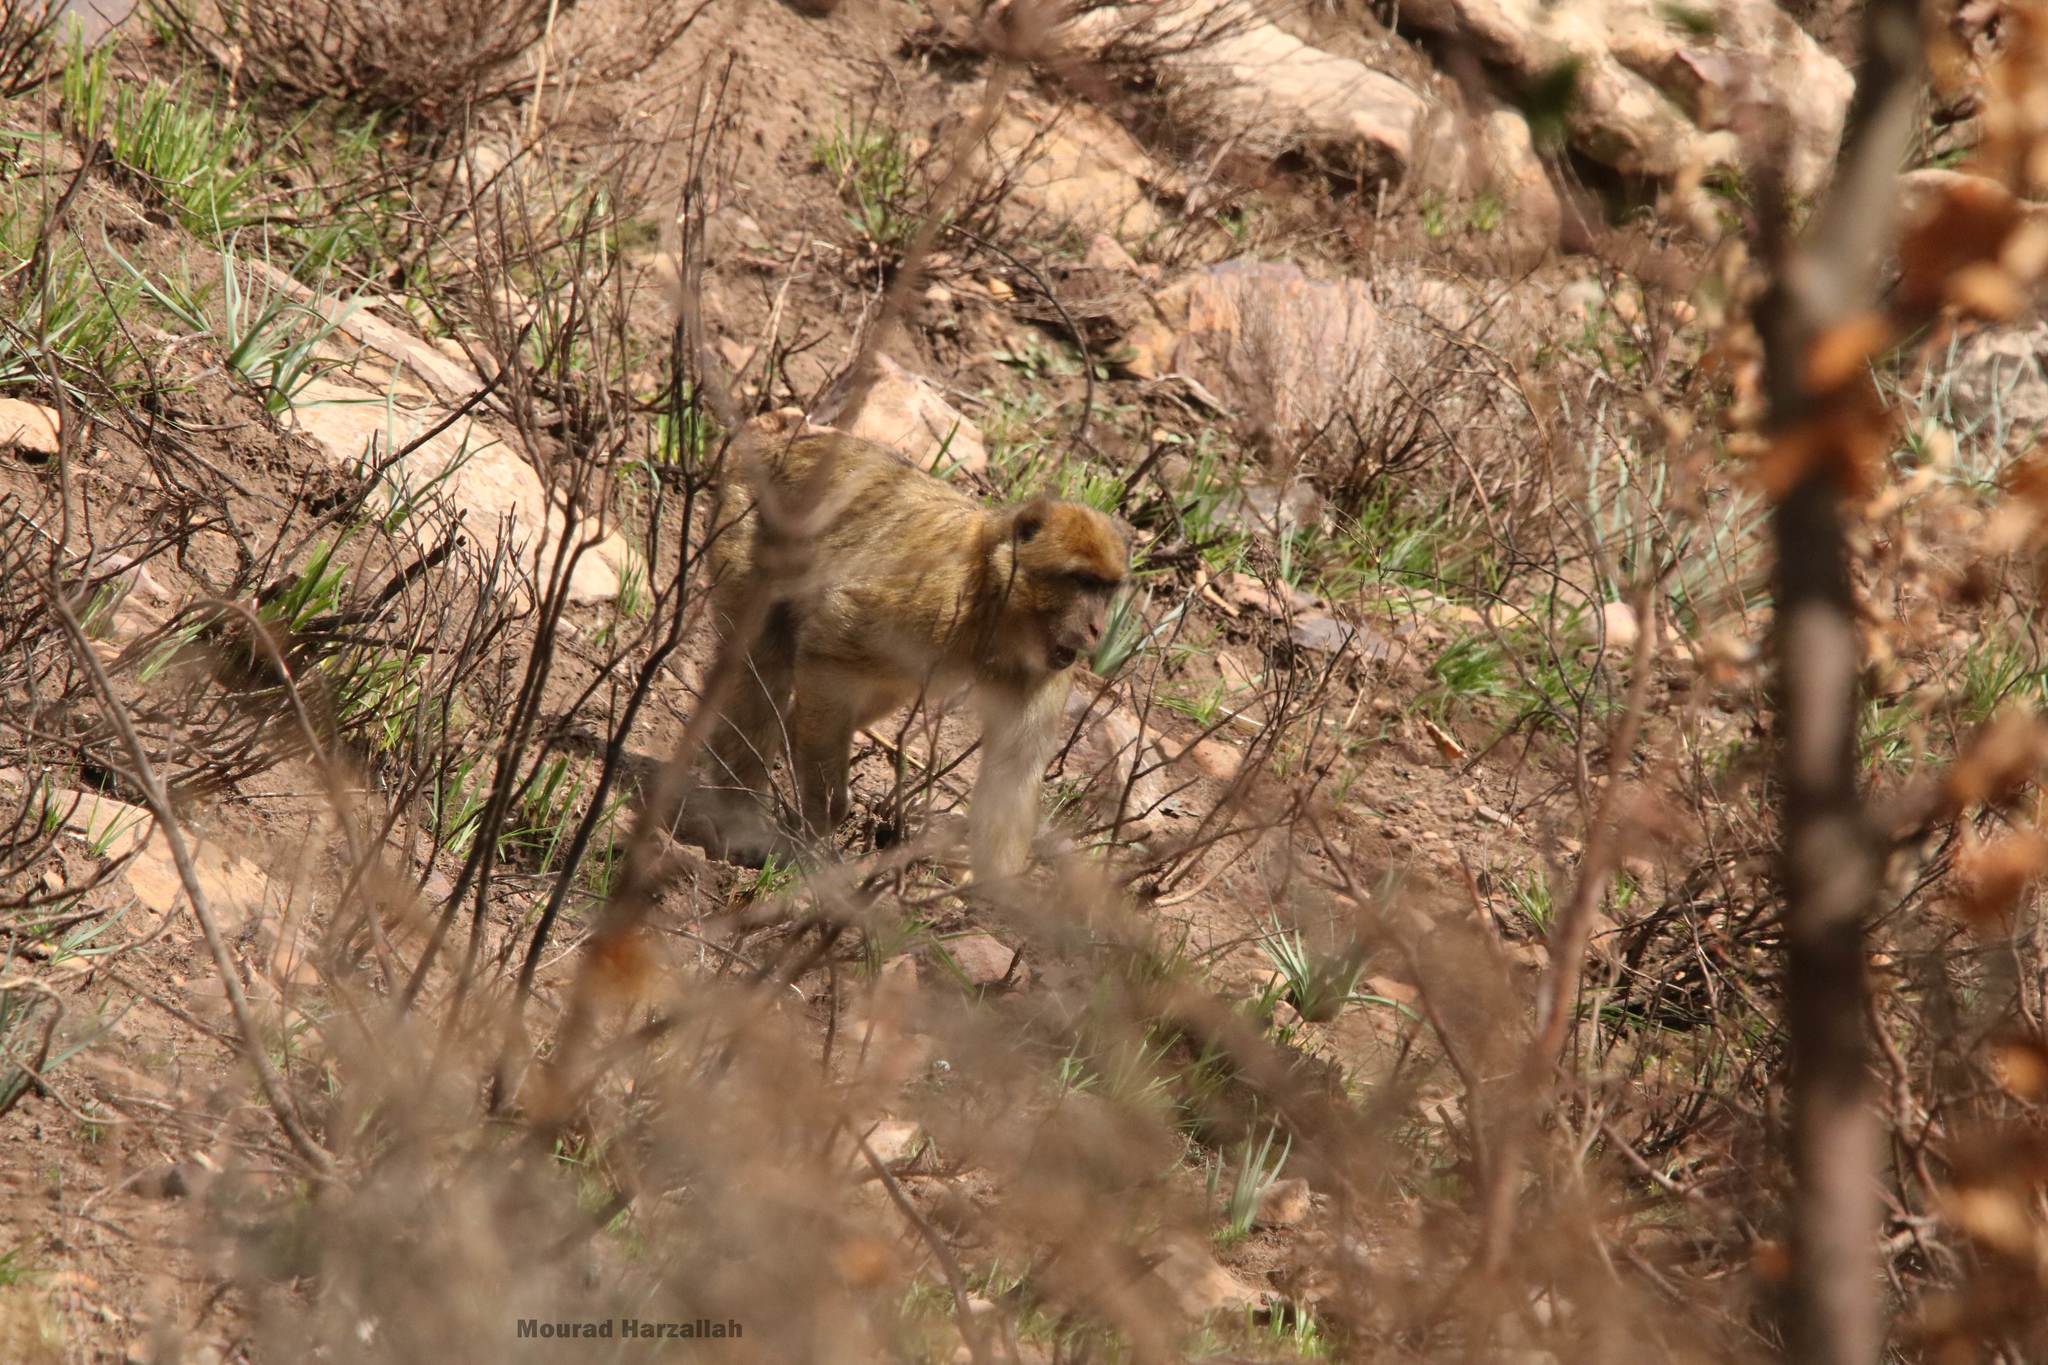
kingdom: Animalia
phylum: Chordata
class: Mammalia
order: Primates
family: Cercopithecidae
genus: Macaca
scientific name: Macaca sylvanus
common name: Barbary macaque
